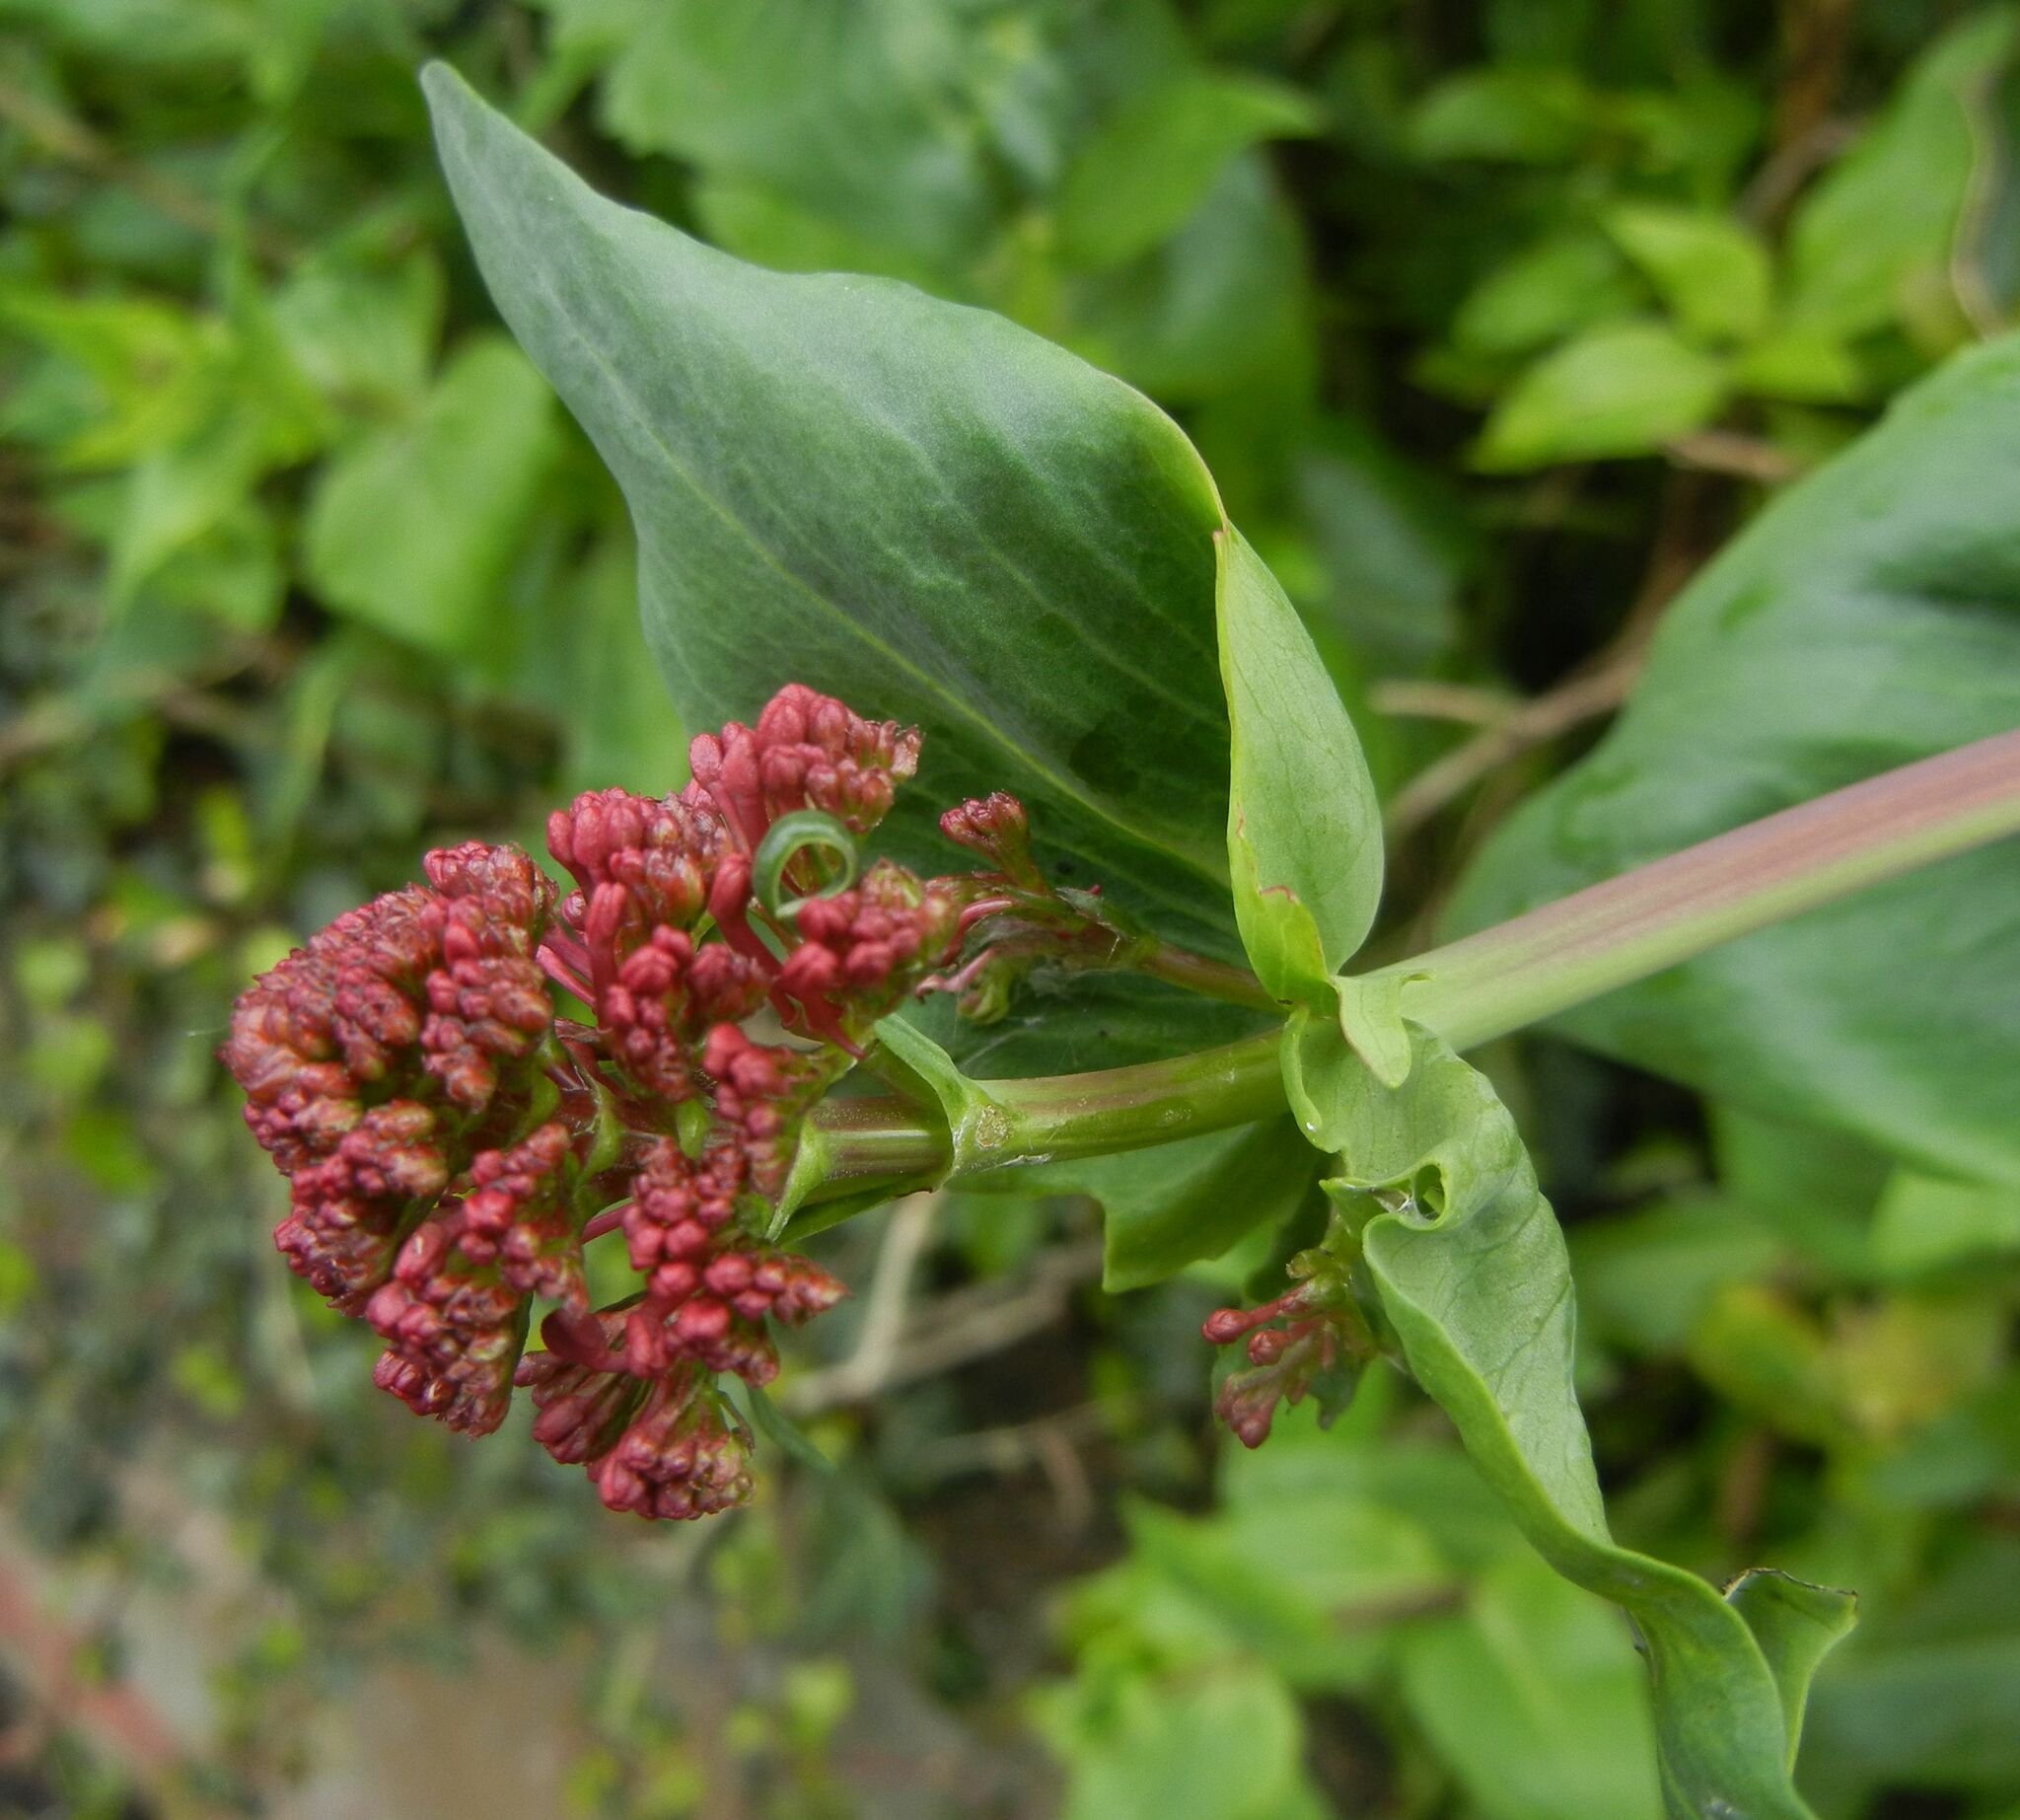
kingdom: Plantae
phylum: Tracheophyta
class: Magnoliopsida
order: Dipsacales
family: Caprifoliaceae
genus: Centranthus
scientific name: Centranthus ruber
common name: Red valerian
